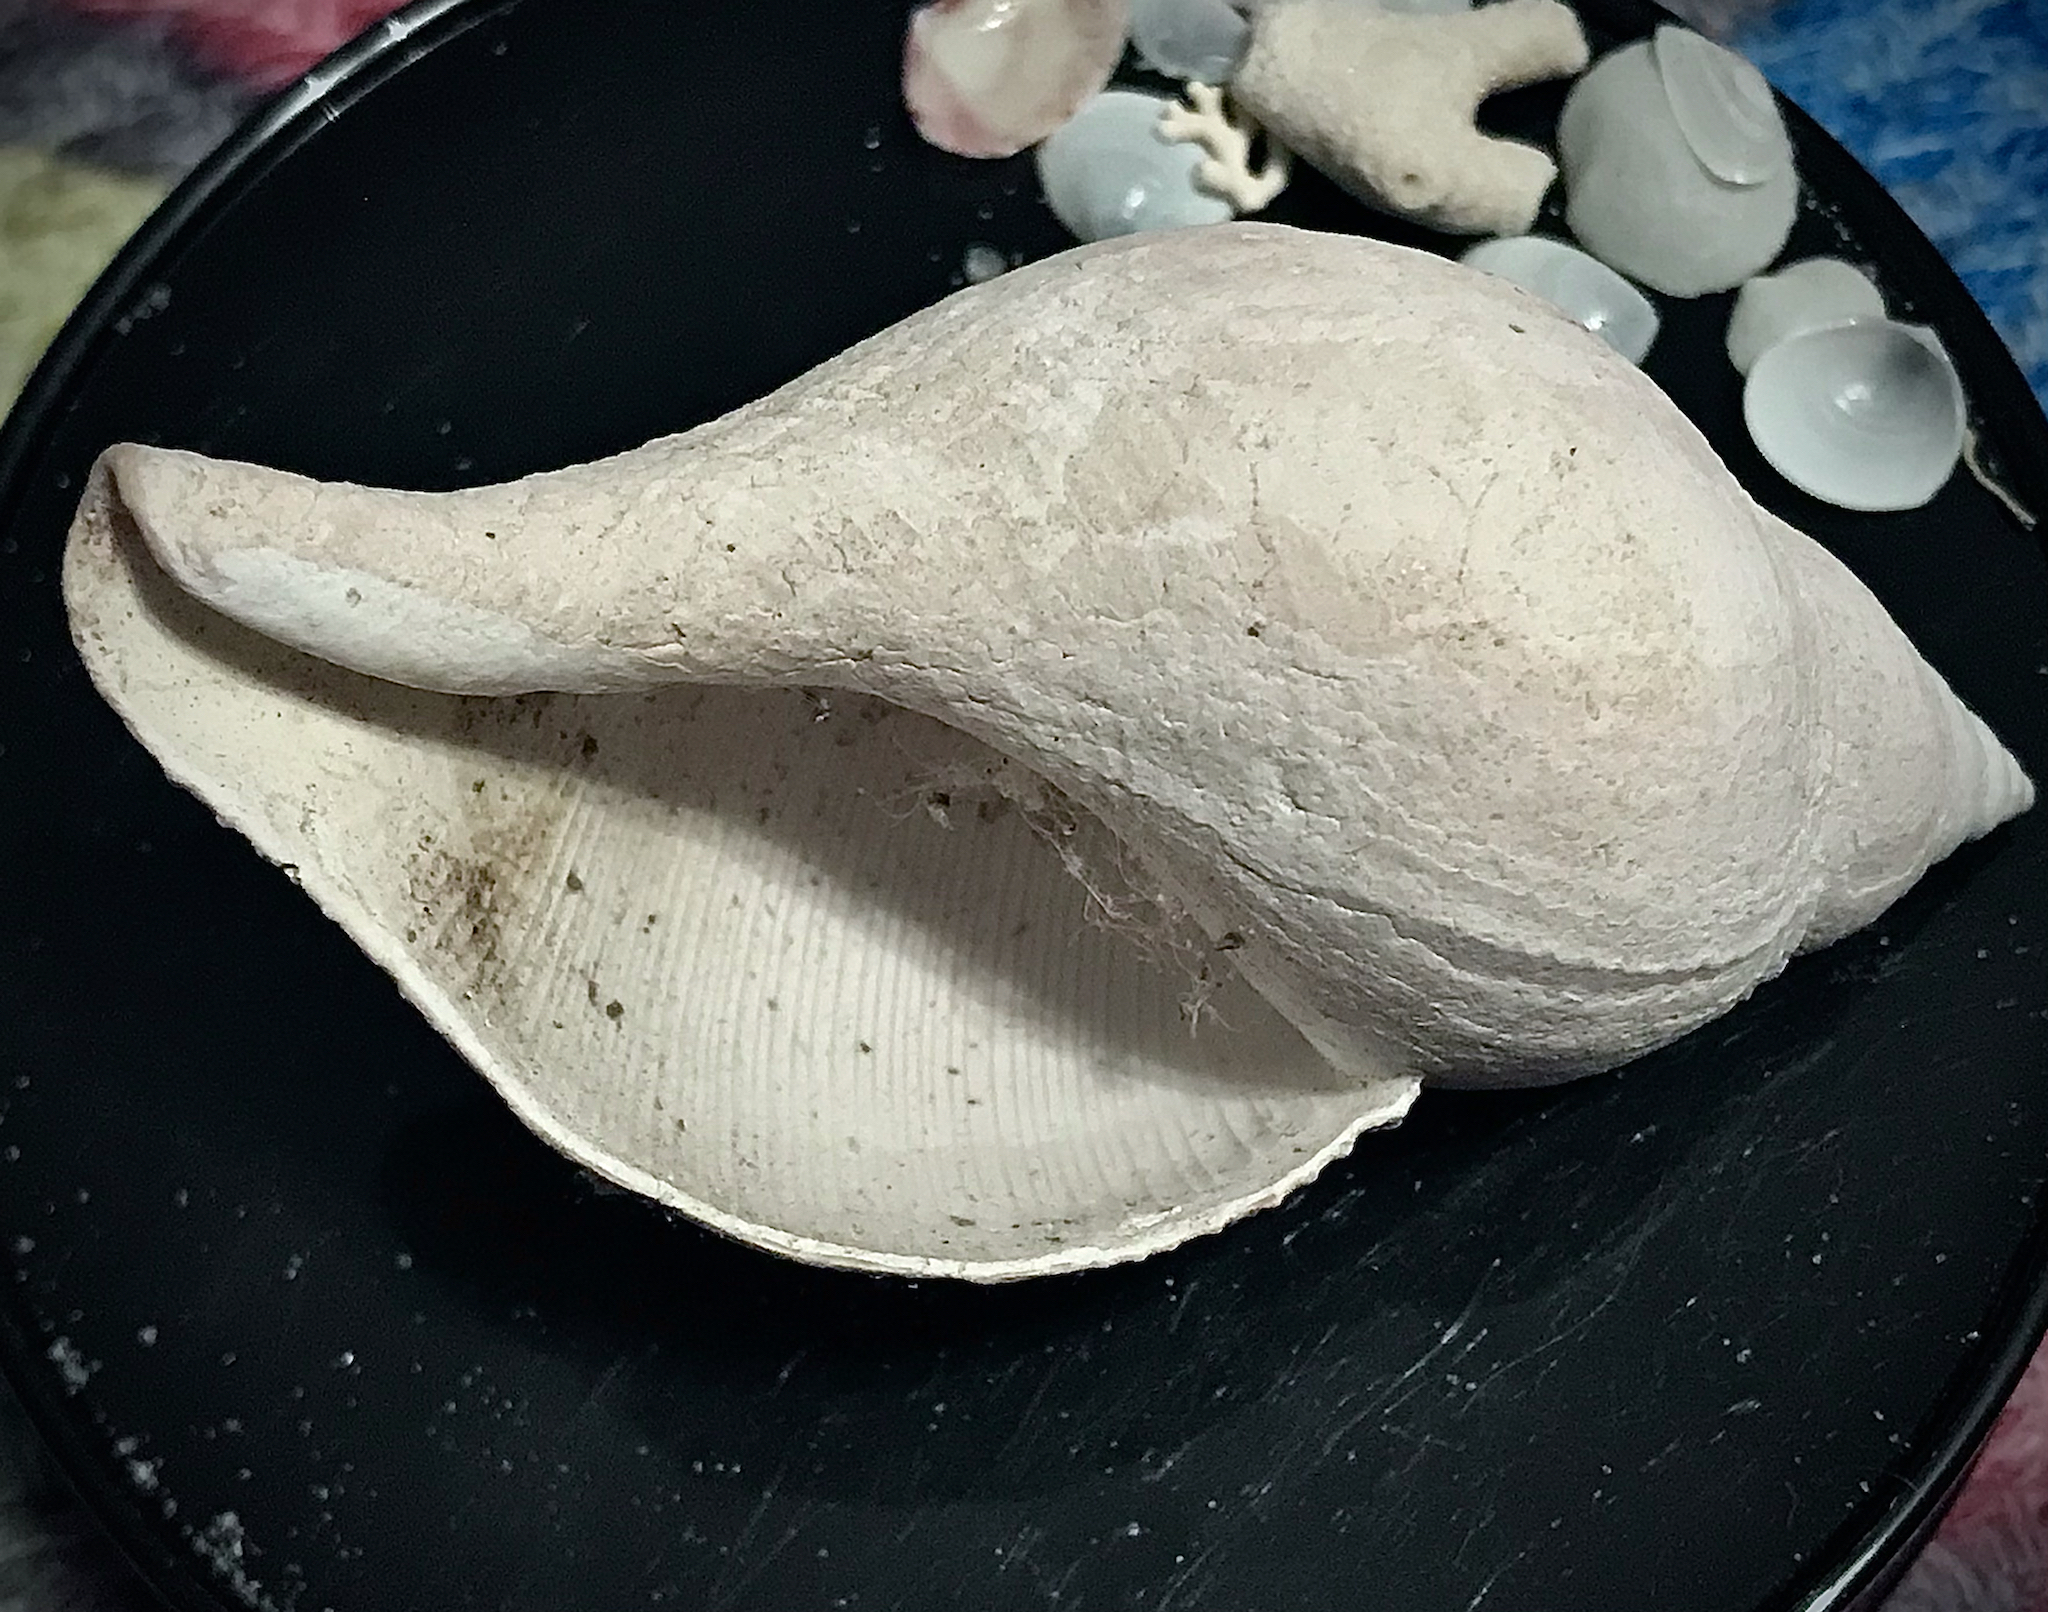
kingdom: Animalia
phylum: Mollusca
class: Gastropoda
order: Neogastropoda
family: Fasciolariidae
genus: Fasciolaria
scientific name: Fasciolaria tulipa
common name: True tulip
